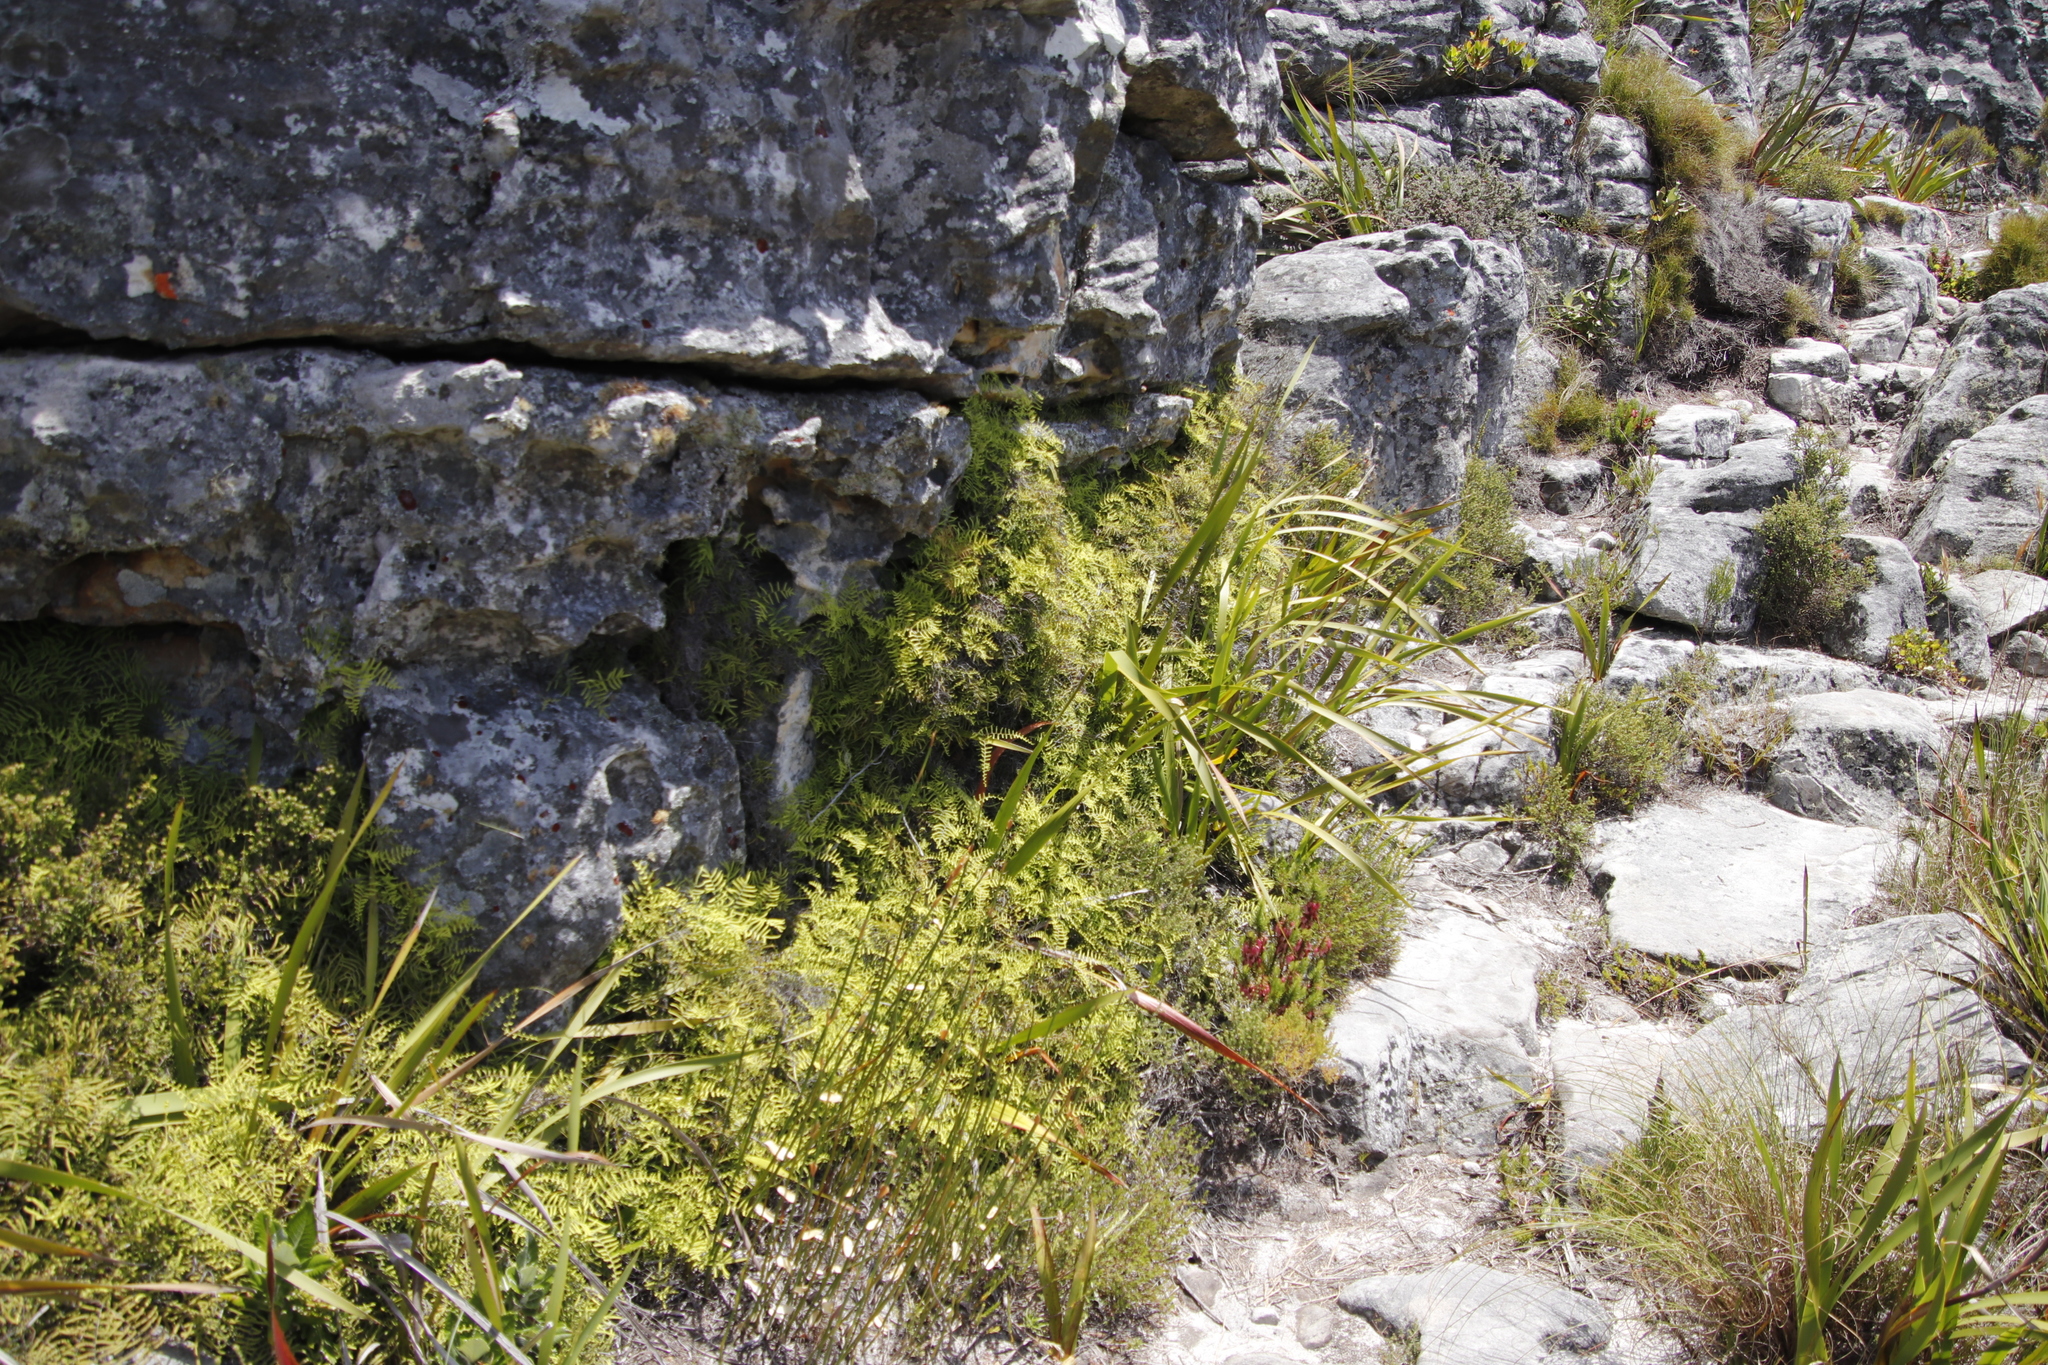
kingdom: Plantae
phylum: Tracheophyta
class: Polypodiopsida
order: Gleicheniales
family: Gleicheniaceae
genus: Gleichenia
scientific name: Gleichenia polypodioides
